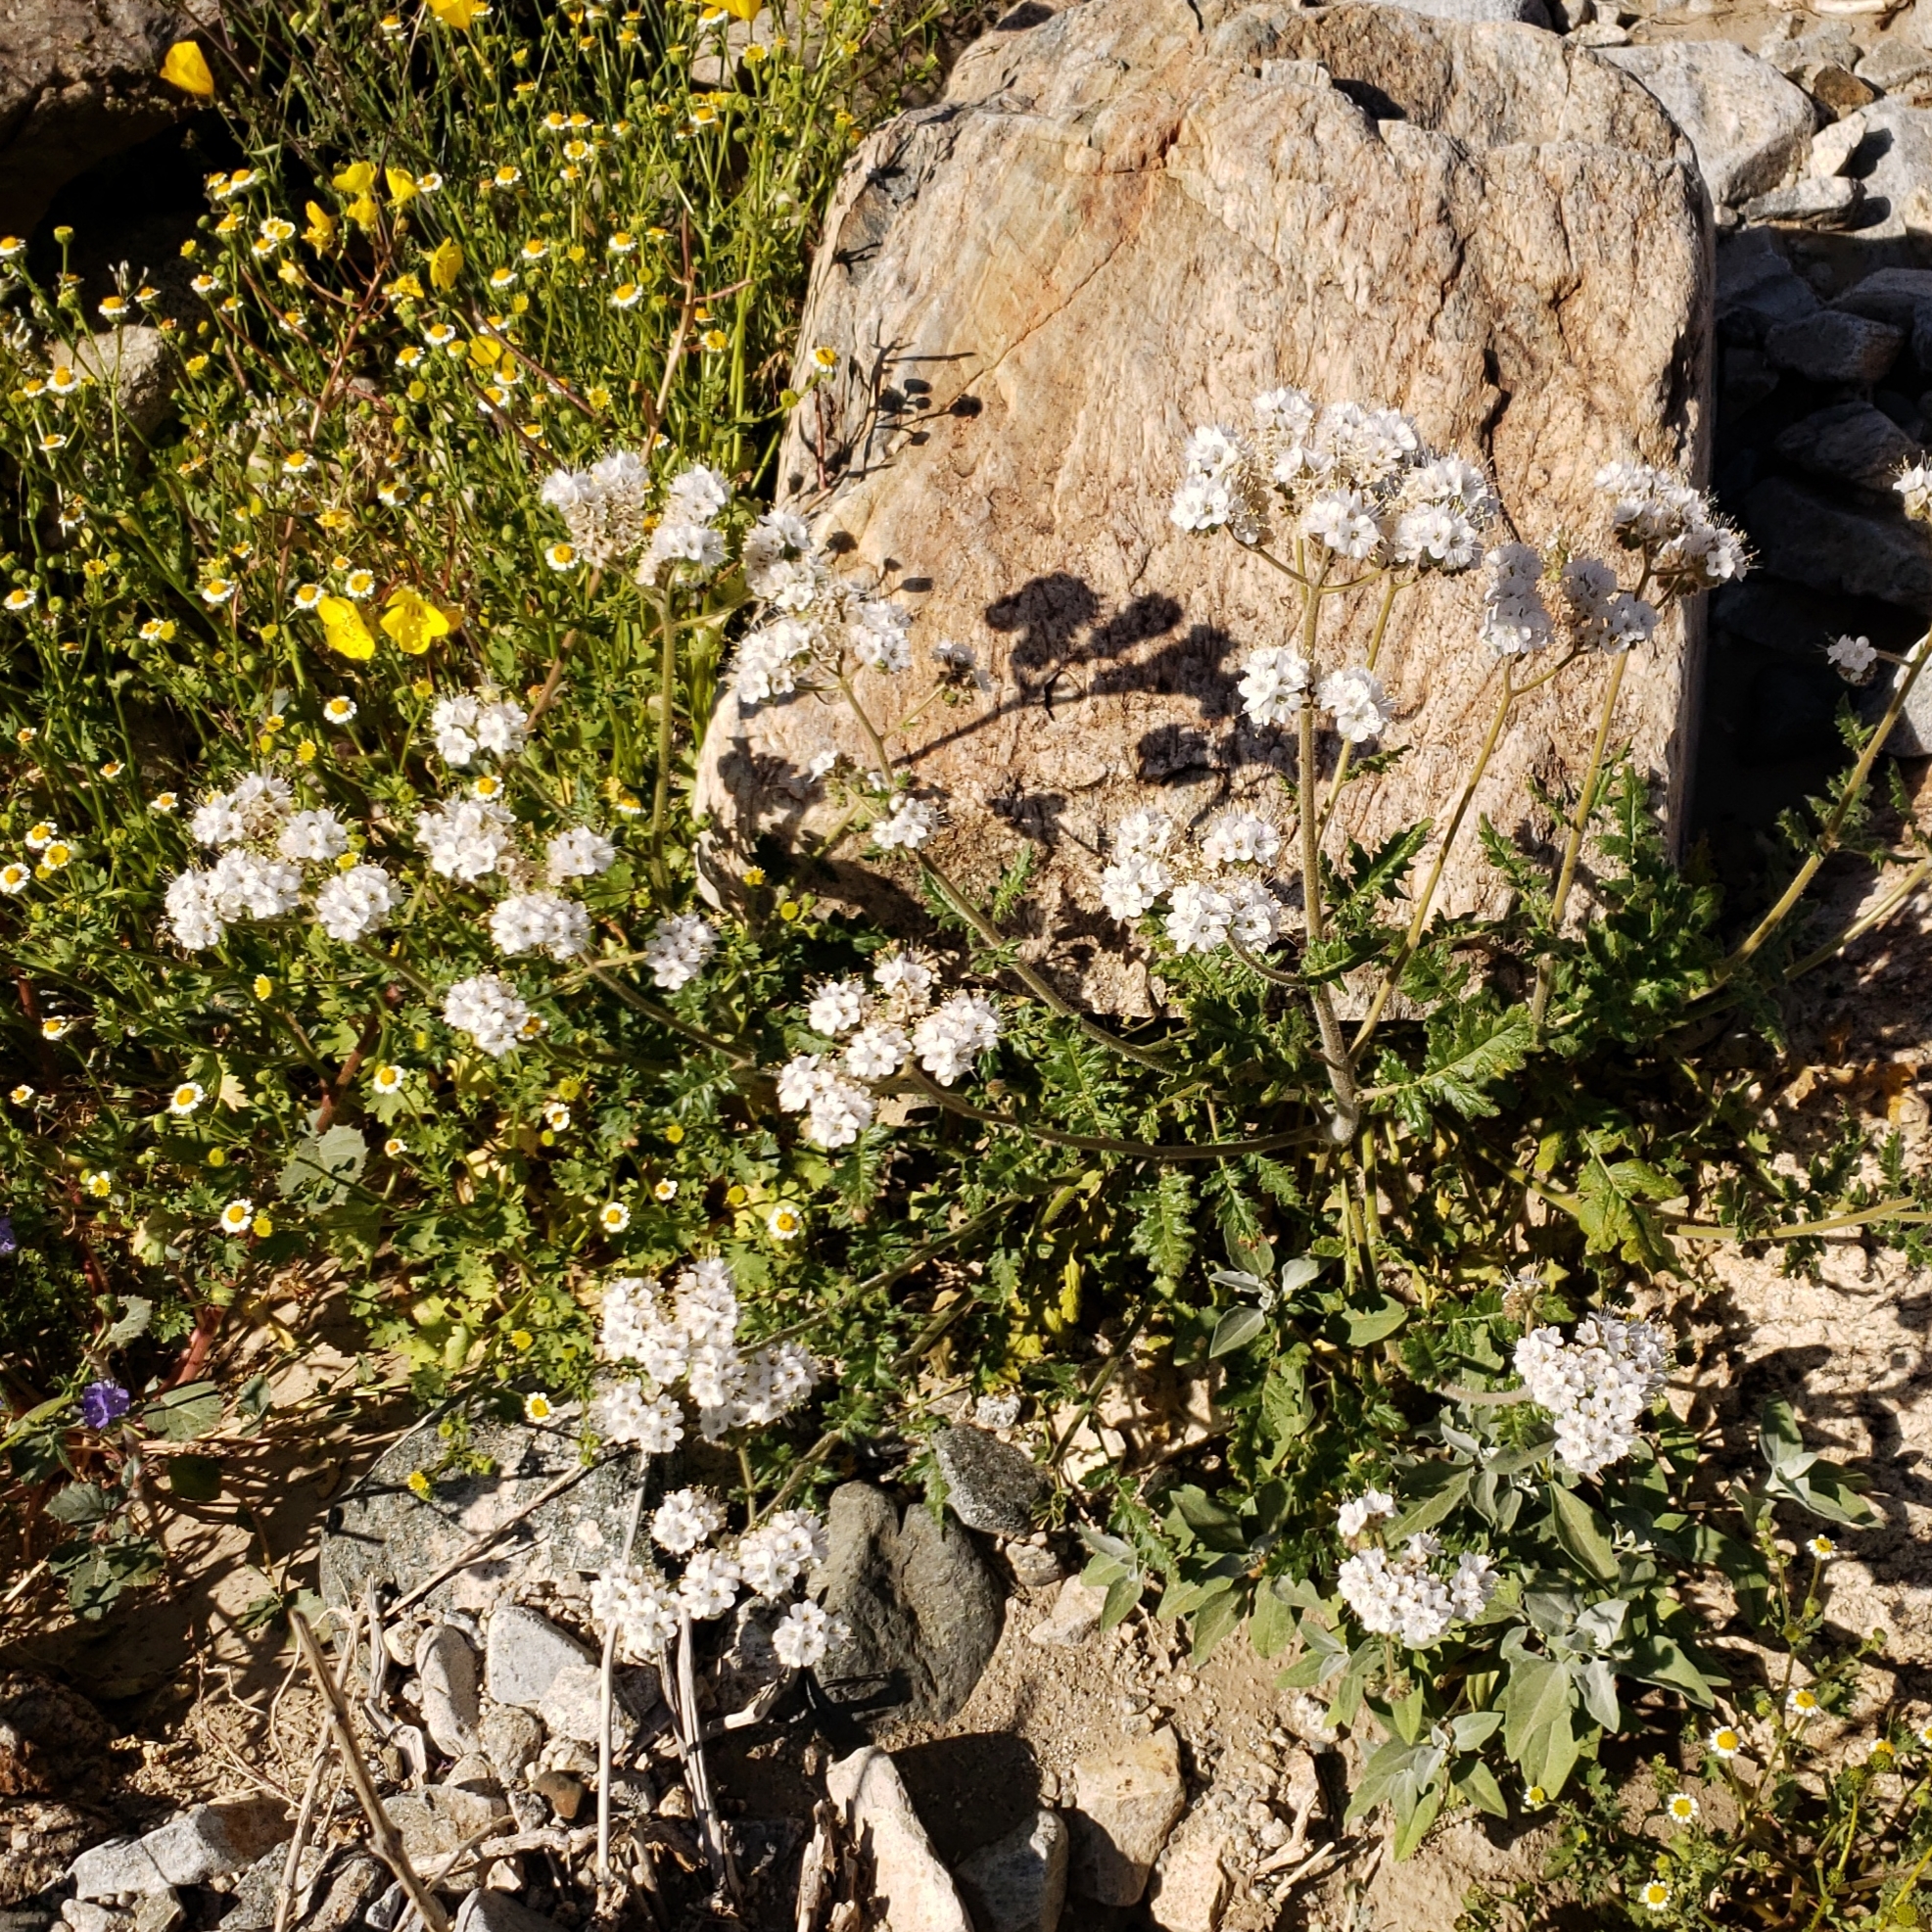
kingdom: Plantae
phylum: Tracheophyta
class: Magnoliopsida
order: Boraginales
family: Hydrophyllaceae
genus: Phacelia
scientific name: Phacelia crenulata
